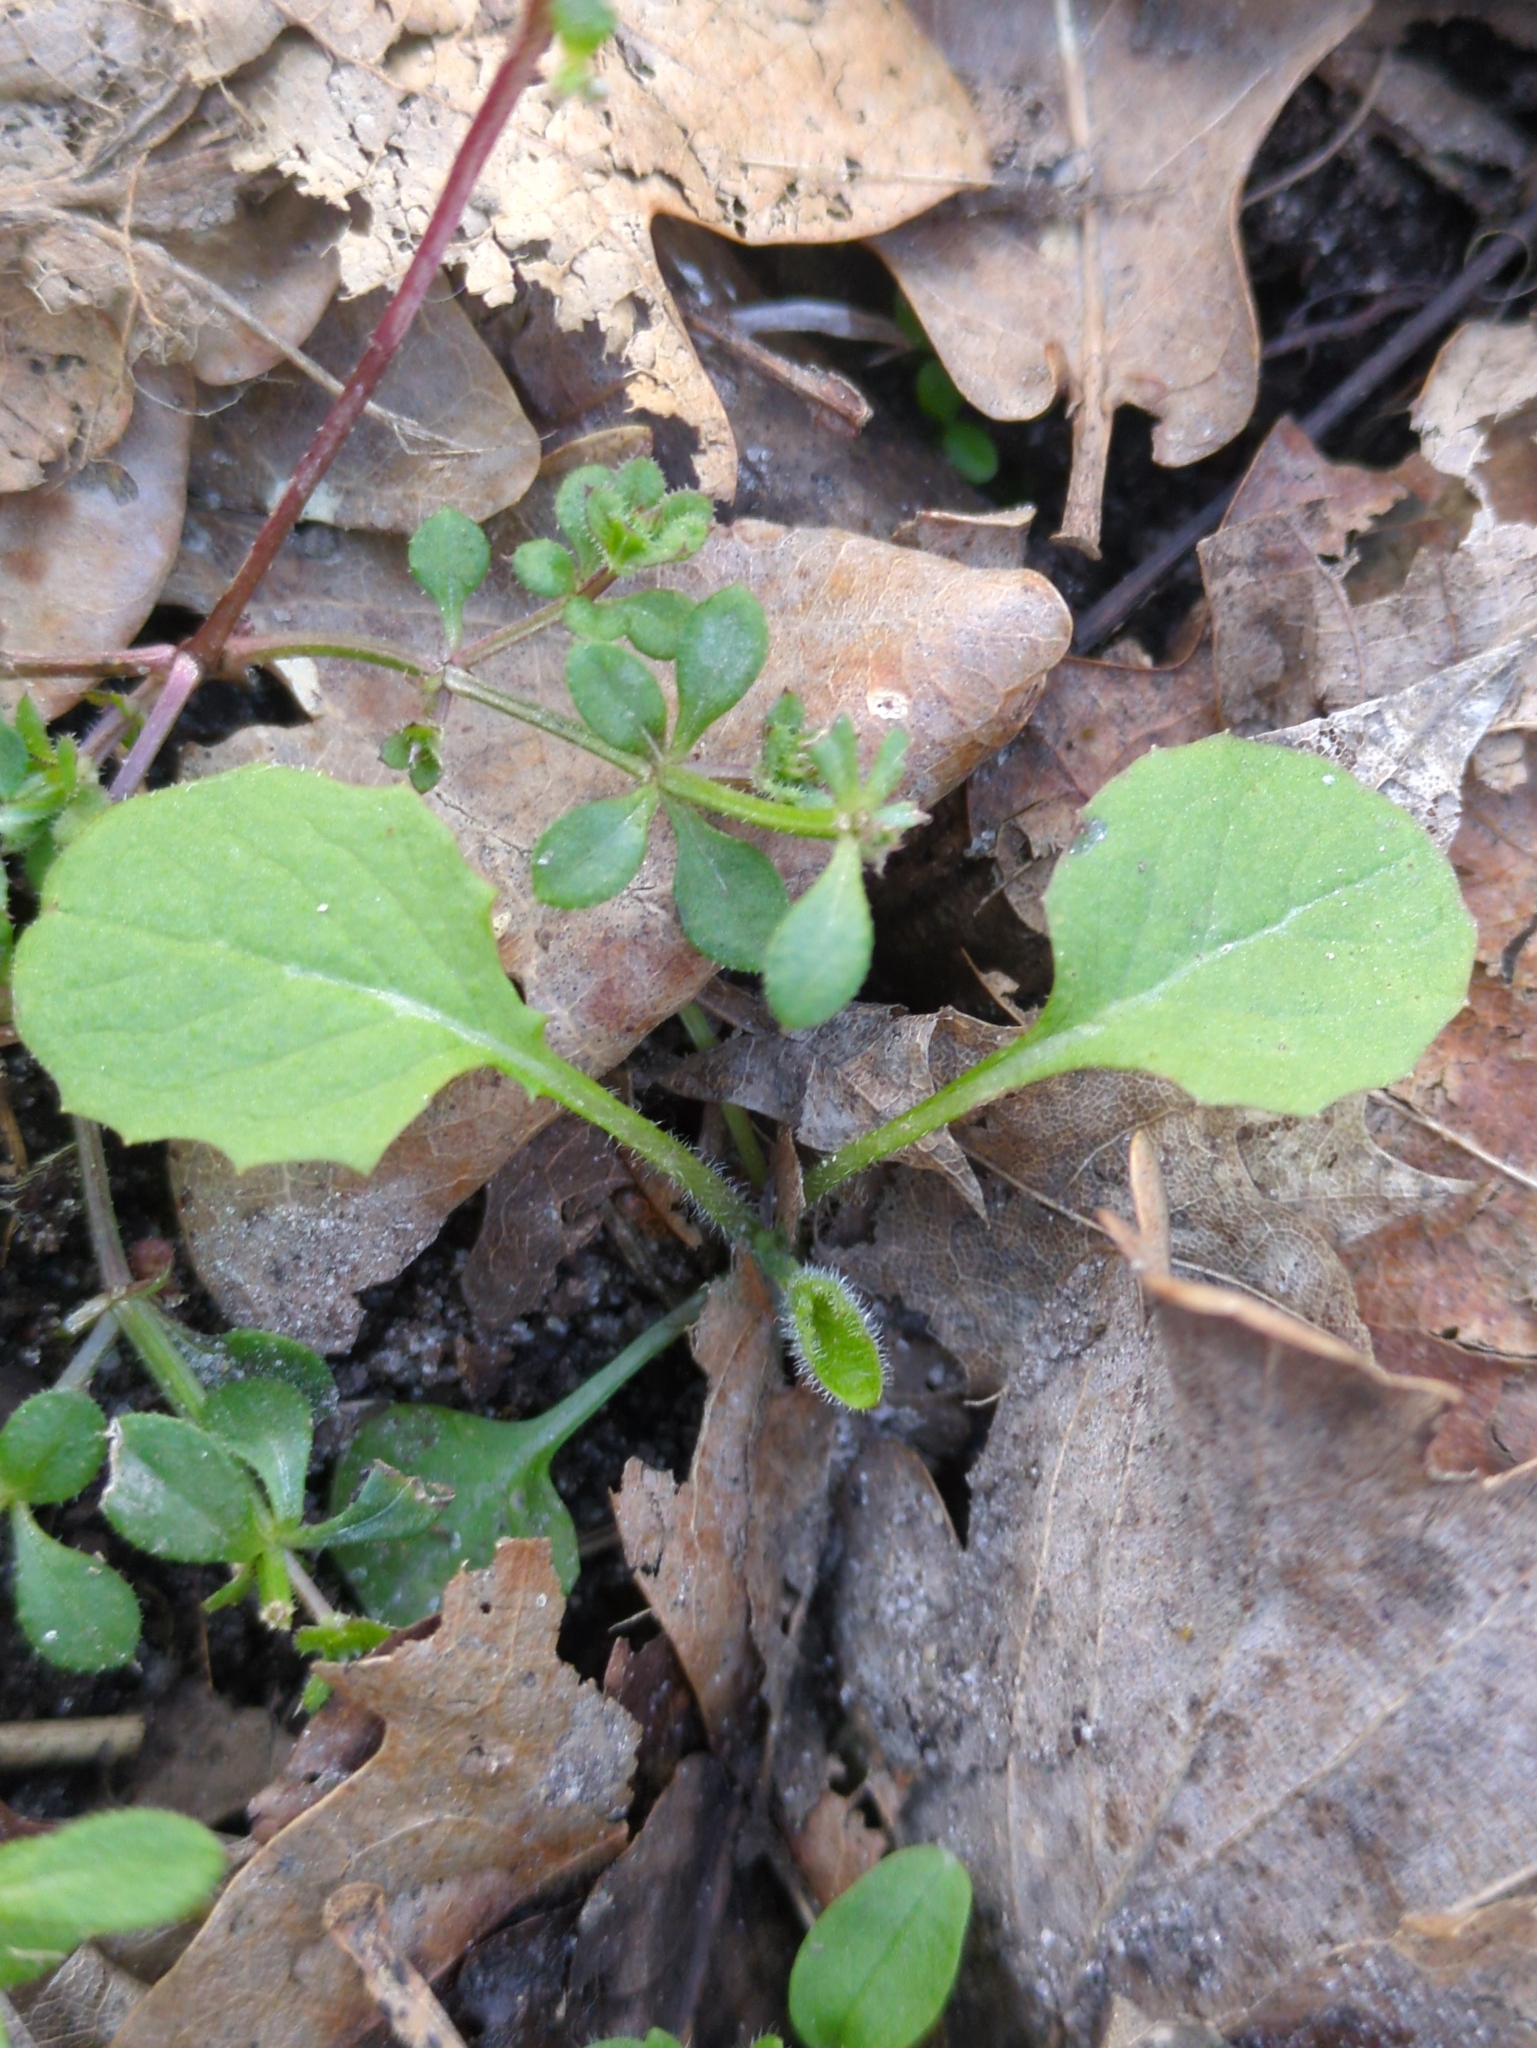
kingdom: Plantae
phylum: Tracheophyta
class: Magnoliopsida
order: Asterales
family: Asteraceae
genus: Lapsana
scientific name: Lapsana communis
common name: Nipplewort
